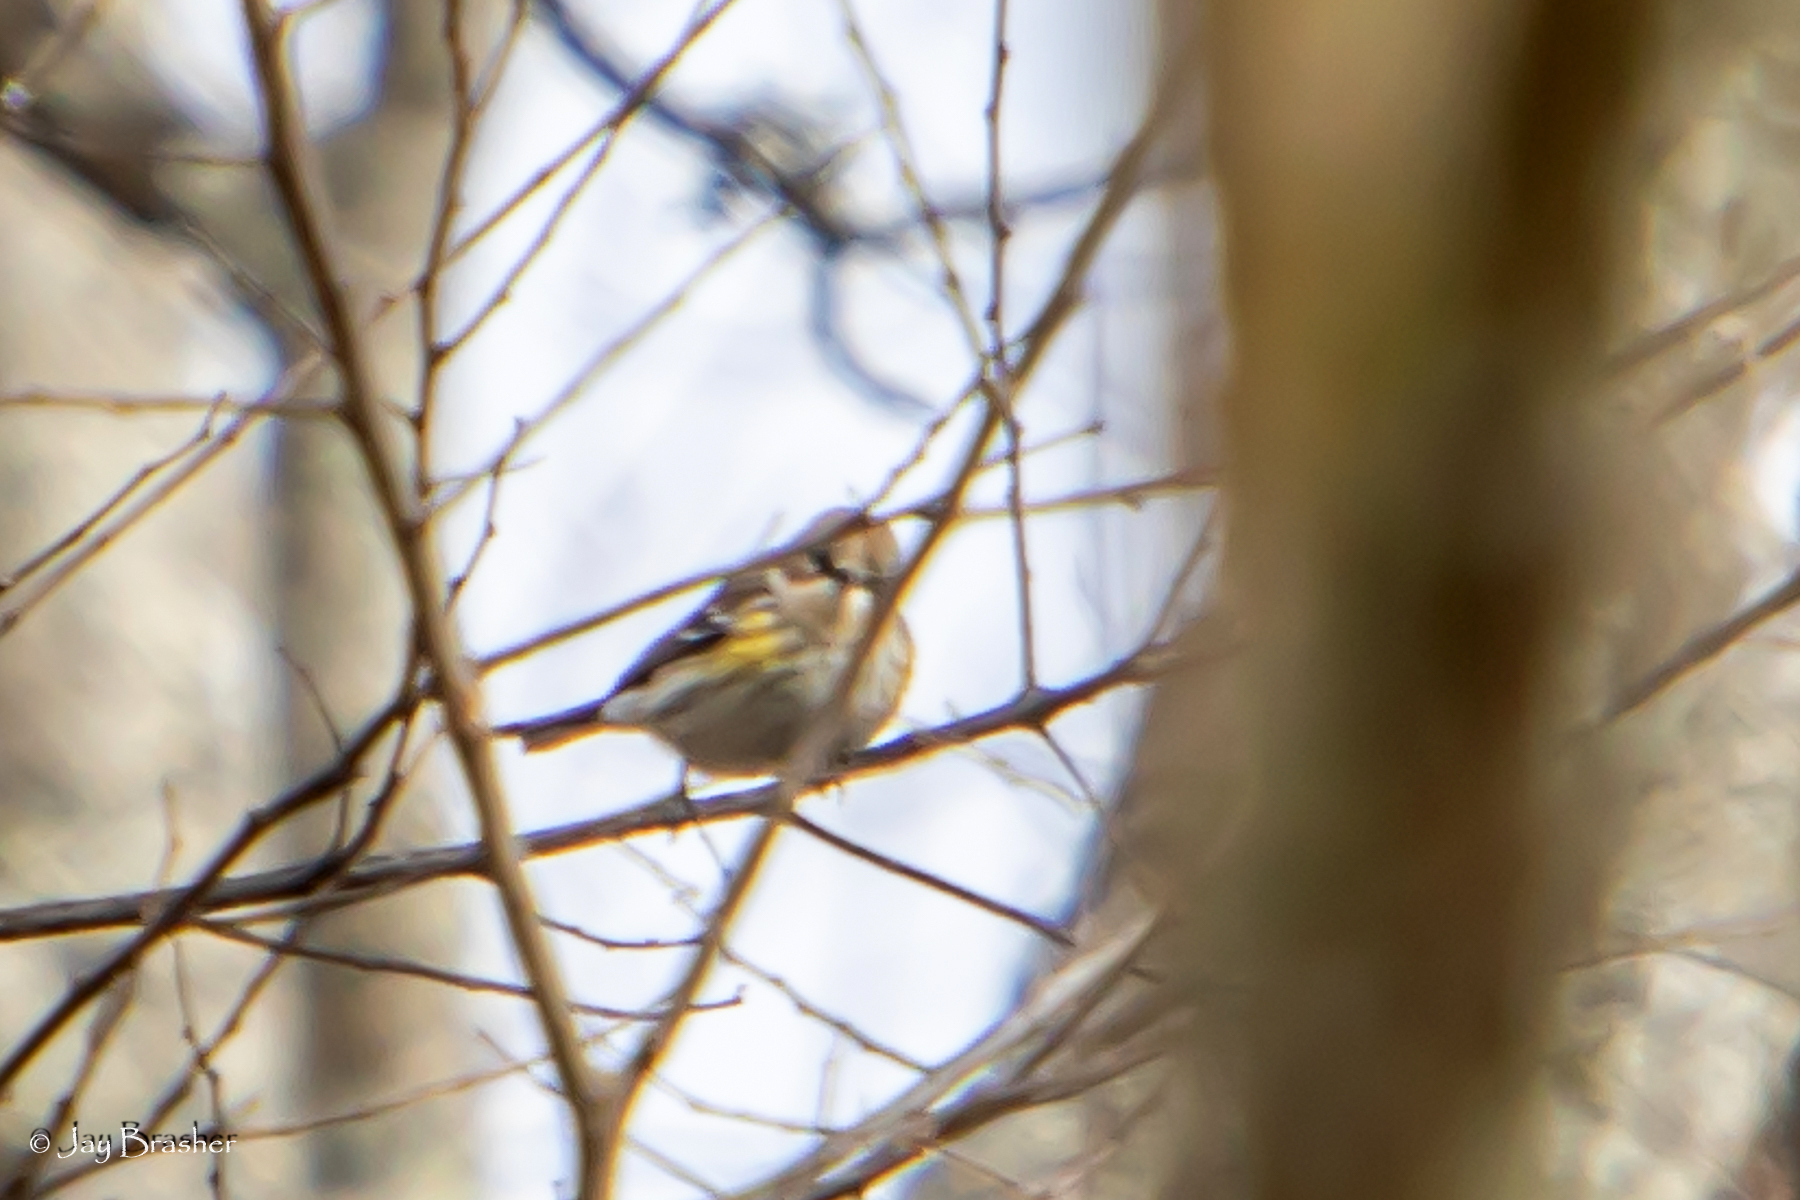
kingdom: Animalia
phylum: Chordata
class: Aves
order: Passeriformes
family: Parulidae
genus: Setophaga
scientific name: Setophaga coronata
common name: Myrtle warbler
